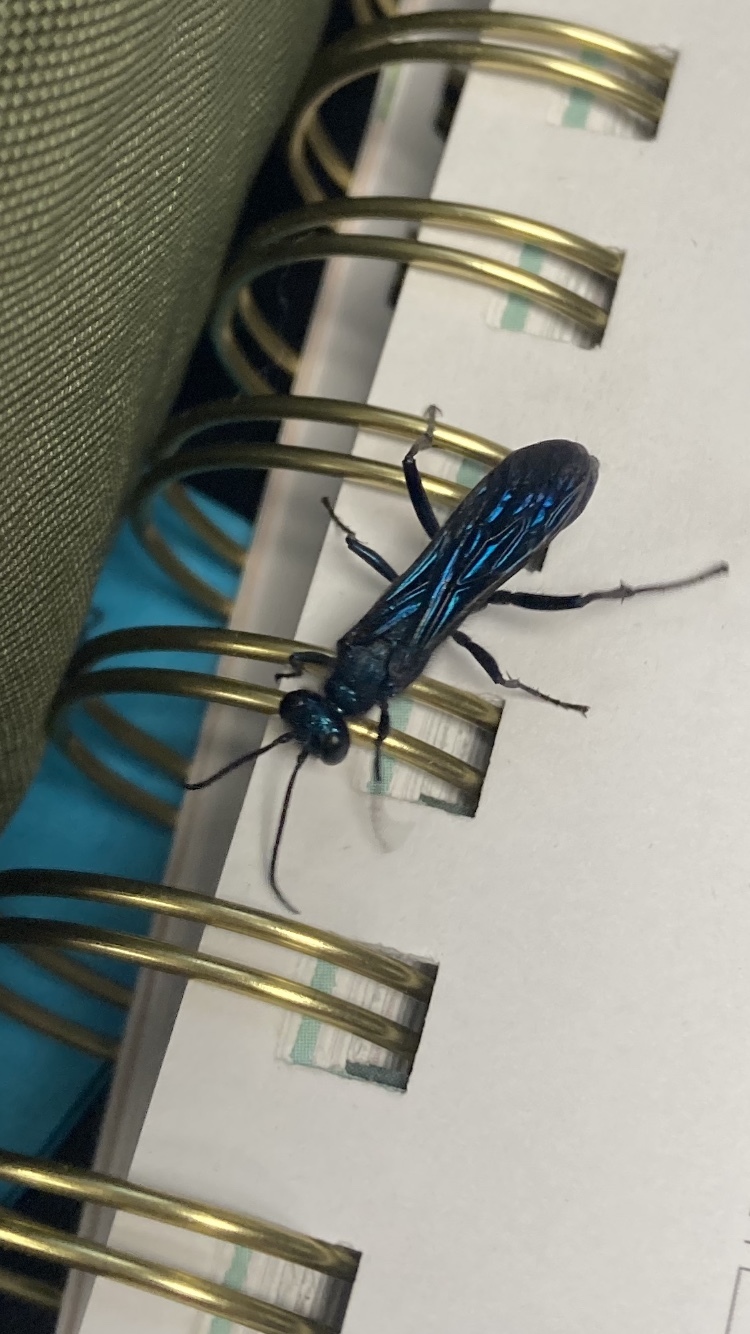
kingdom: Animalia
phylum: Arthropoda
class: Insecta
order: Hymenoptera
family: Sphecidae
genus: Chalybion
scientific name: Chalybion californicum
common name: Mud dauber
